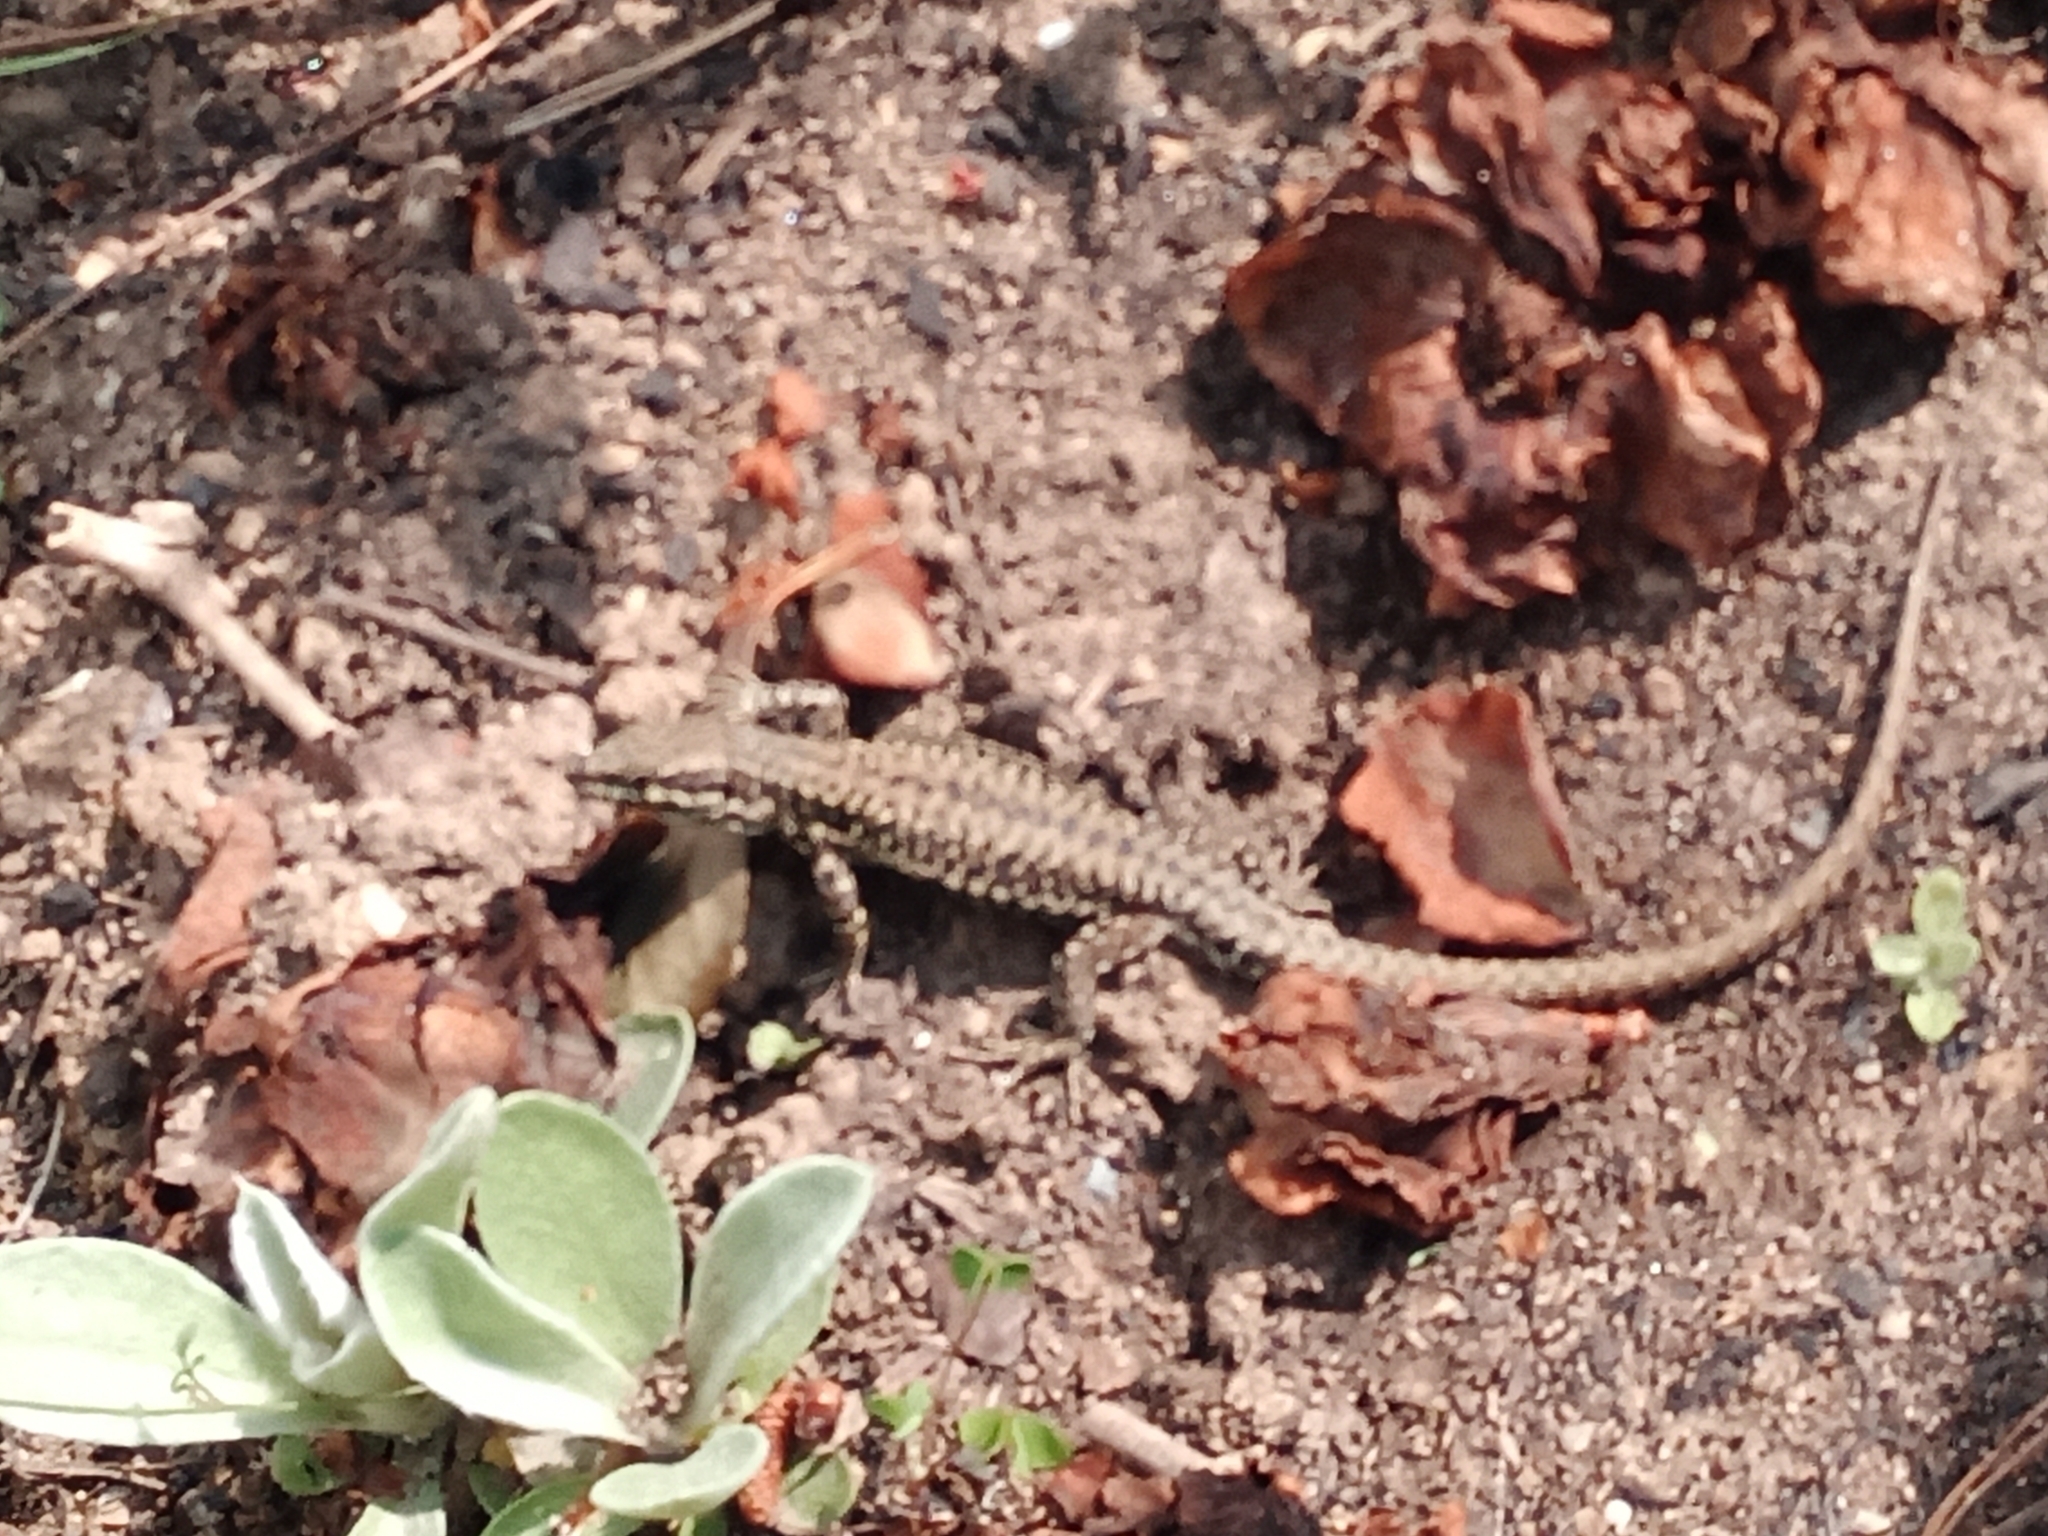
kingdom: Animalia
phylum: Chordata
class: Squamata
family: Lacertidae
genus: Podarcis
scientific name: Podarcis muralis
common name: Common wall lizard
